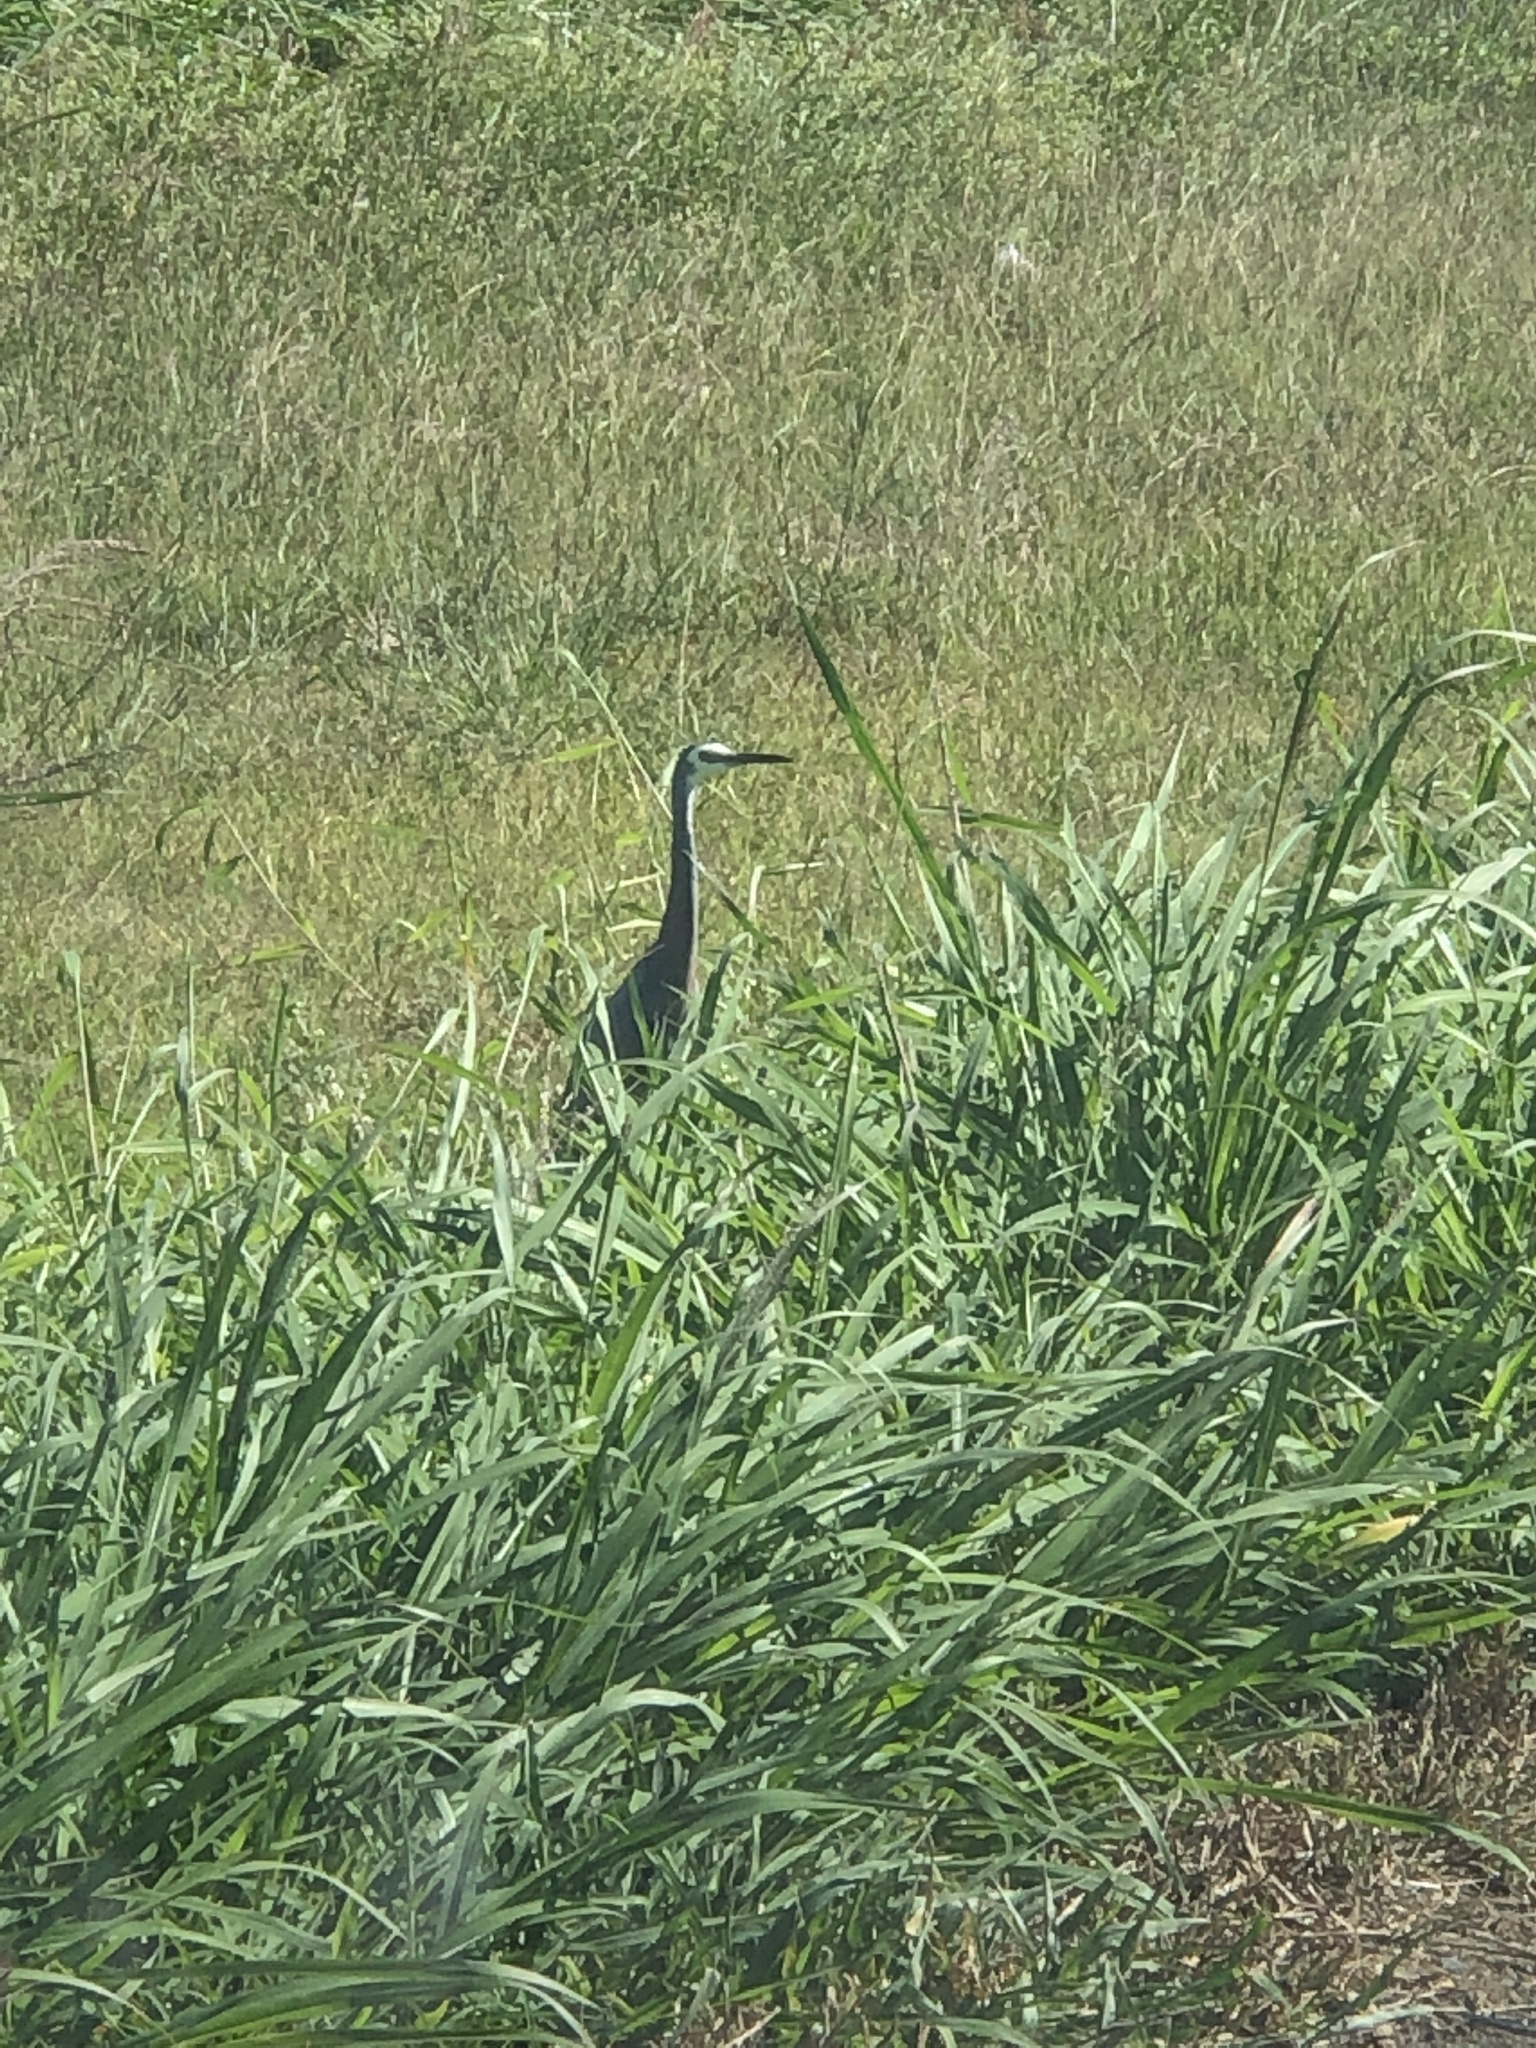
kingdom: Animalia
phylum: Chordata
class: Aves
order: Pelecaniformes
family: Ardeidae
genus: Egretta
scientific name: Egretta novaehollandiae
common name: White-faced heron
